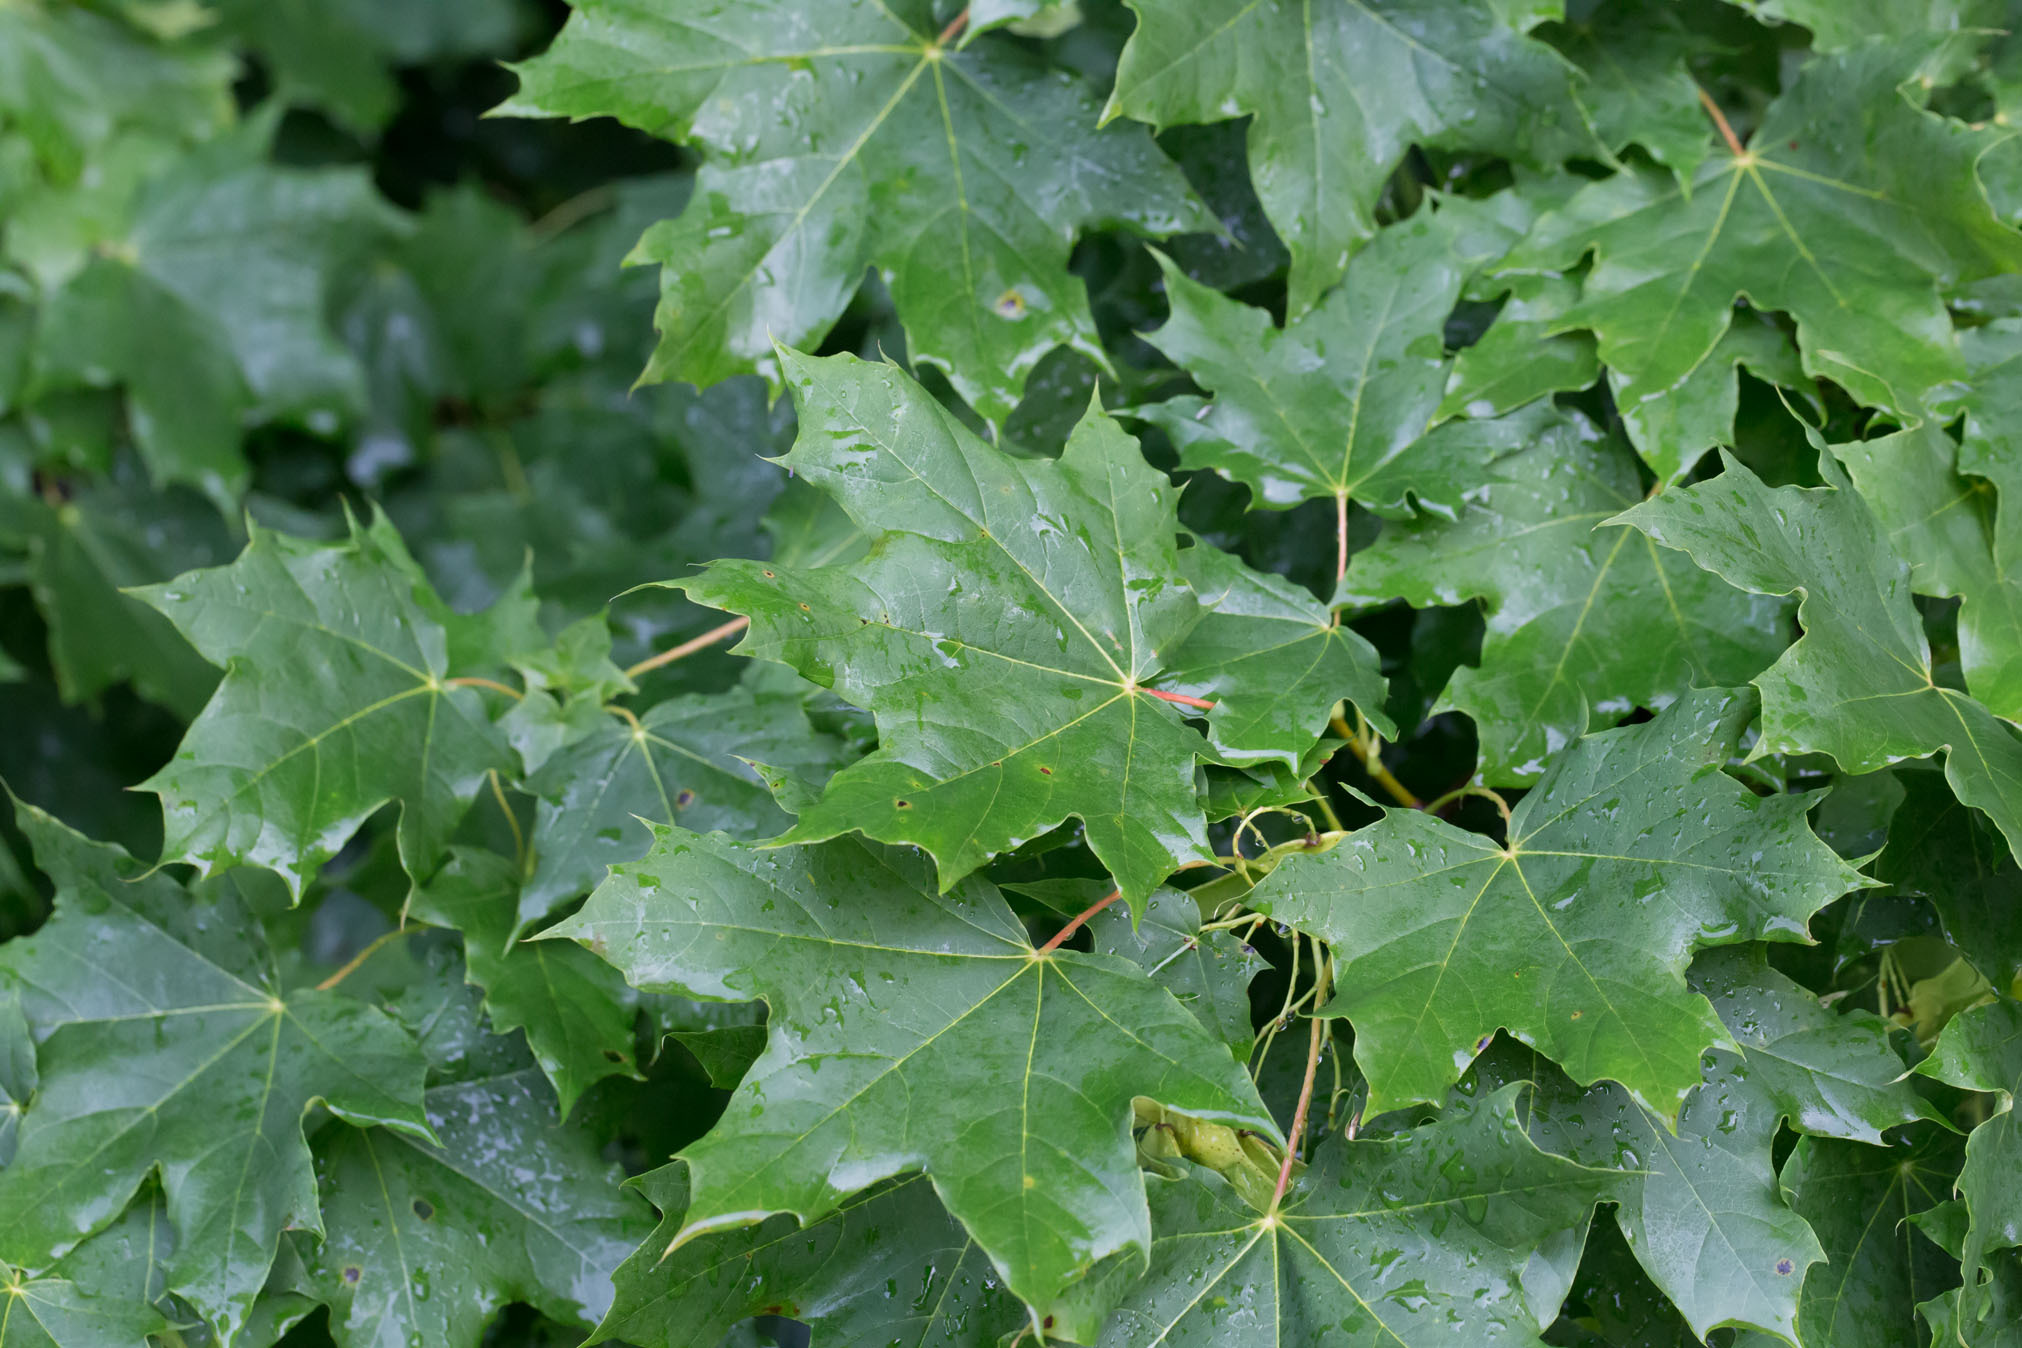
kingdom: Plantae
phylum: Tracheophyta
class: Magnoliopsida
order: Sapindales
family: Sapindaceae
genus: Acer
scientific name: Acer platanoides
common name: Norway maple
